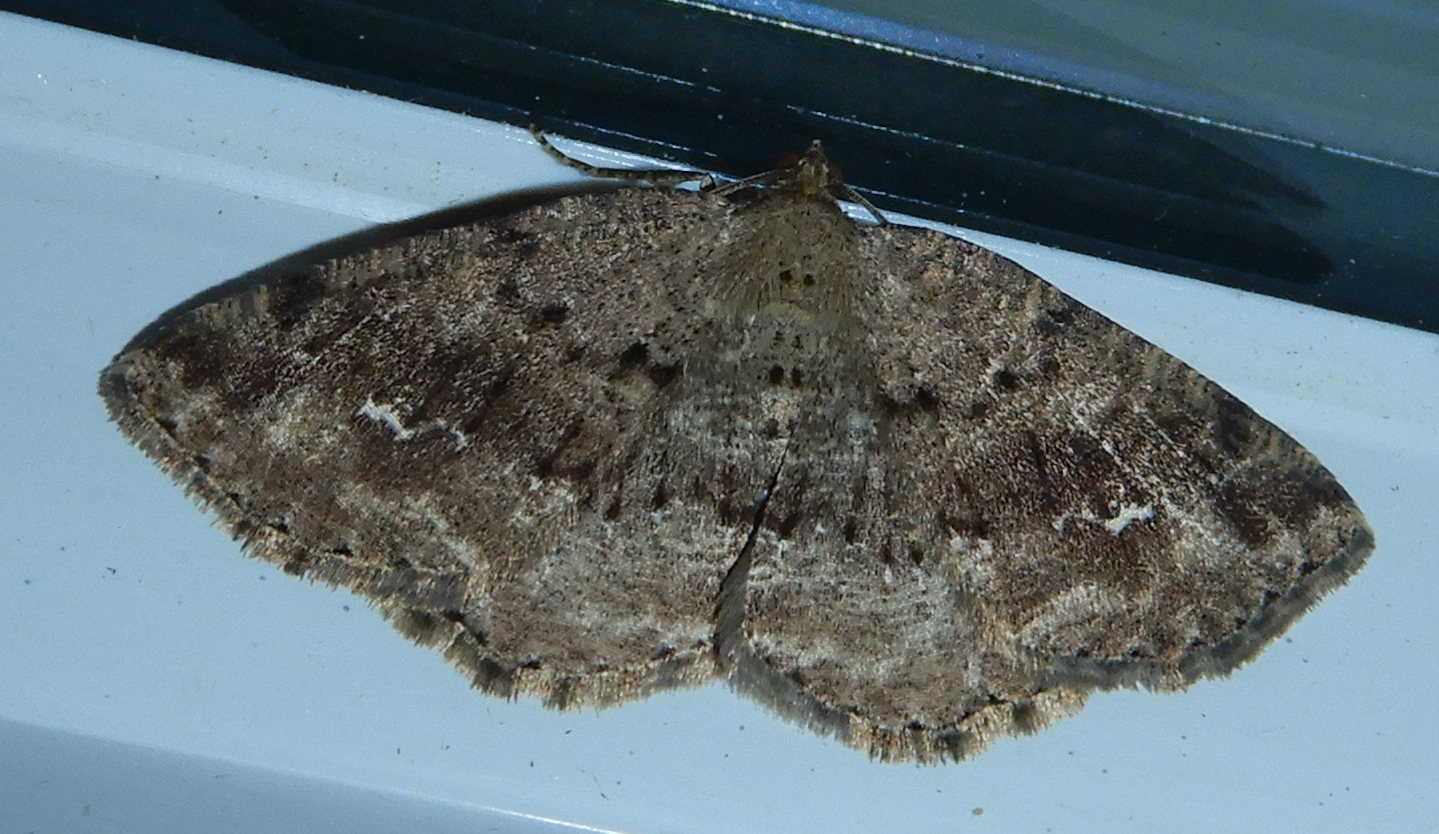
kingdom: Animalia
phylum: Arthropoda
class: Insecta
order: Lepidoptera
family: Geometridae
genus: Homochlodes
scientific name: Homochlodes fritillaria
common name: Pale homochlodes
